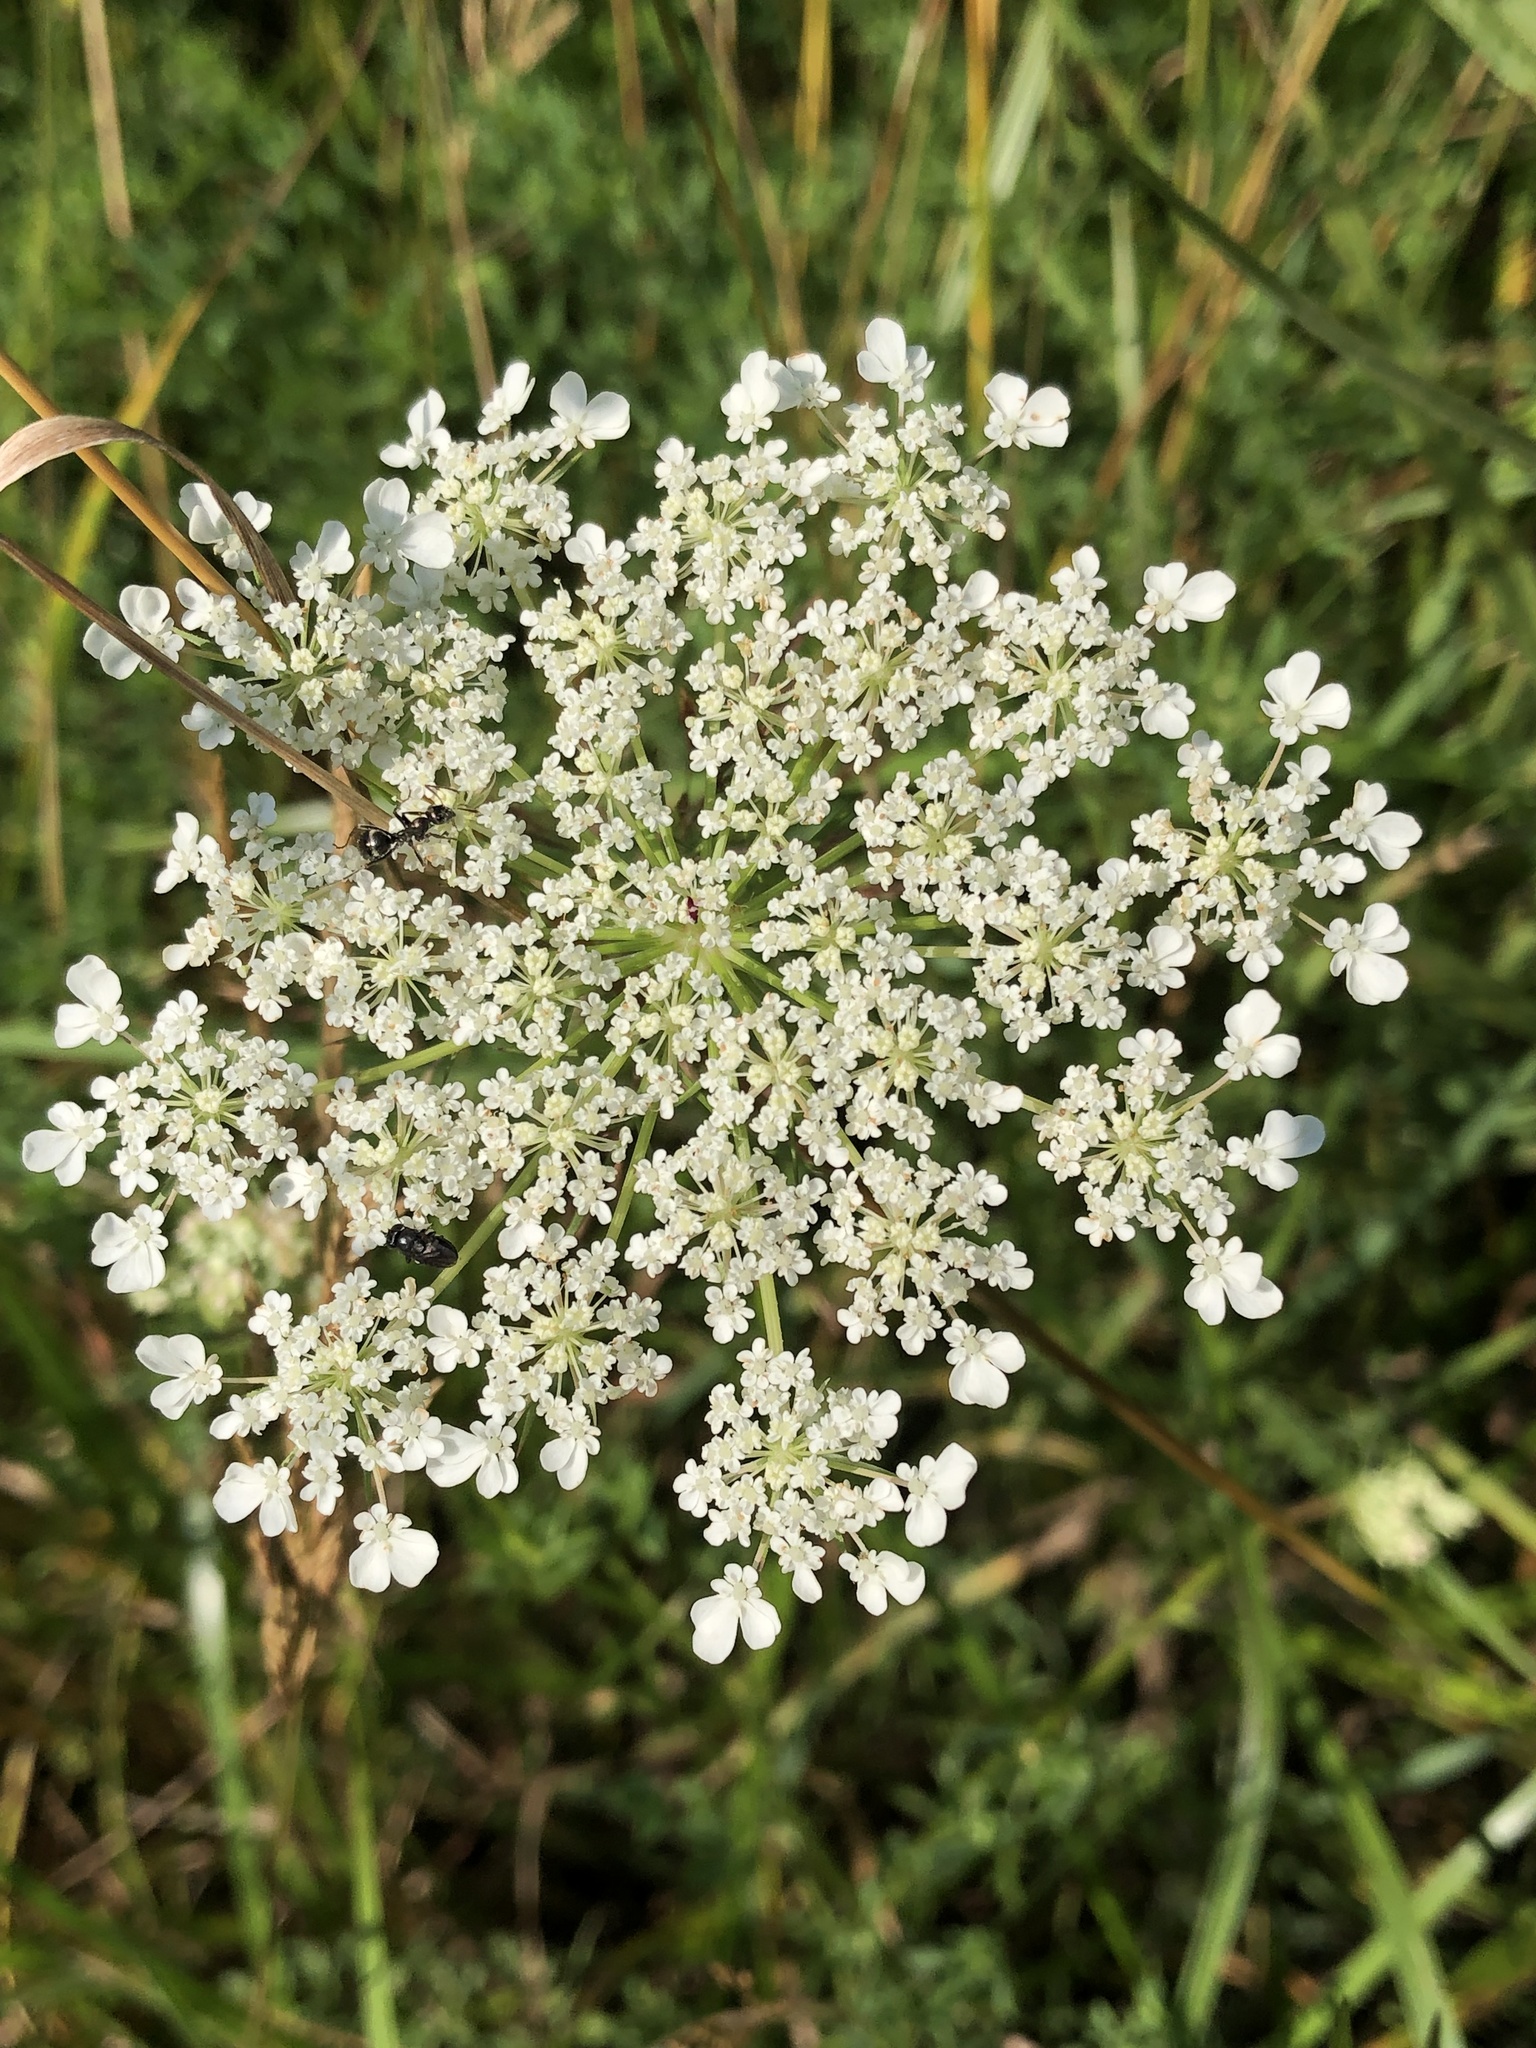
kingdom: Plantae
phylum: Tracheophyta
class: Magnoliopsida
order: Apiales
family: Apiaceae
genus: Daucus
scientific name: Daucus carota
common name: Wild carrot
